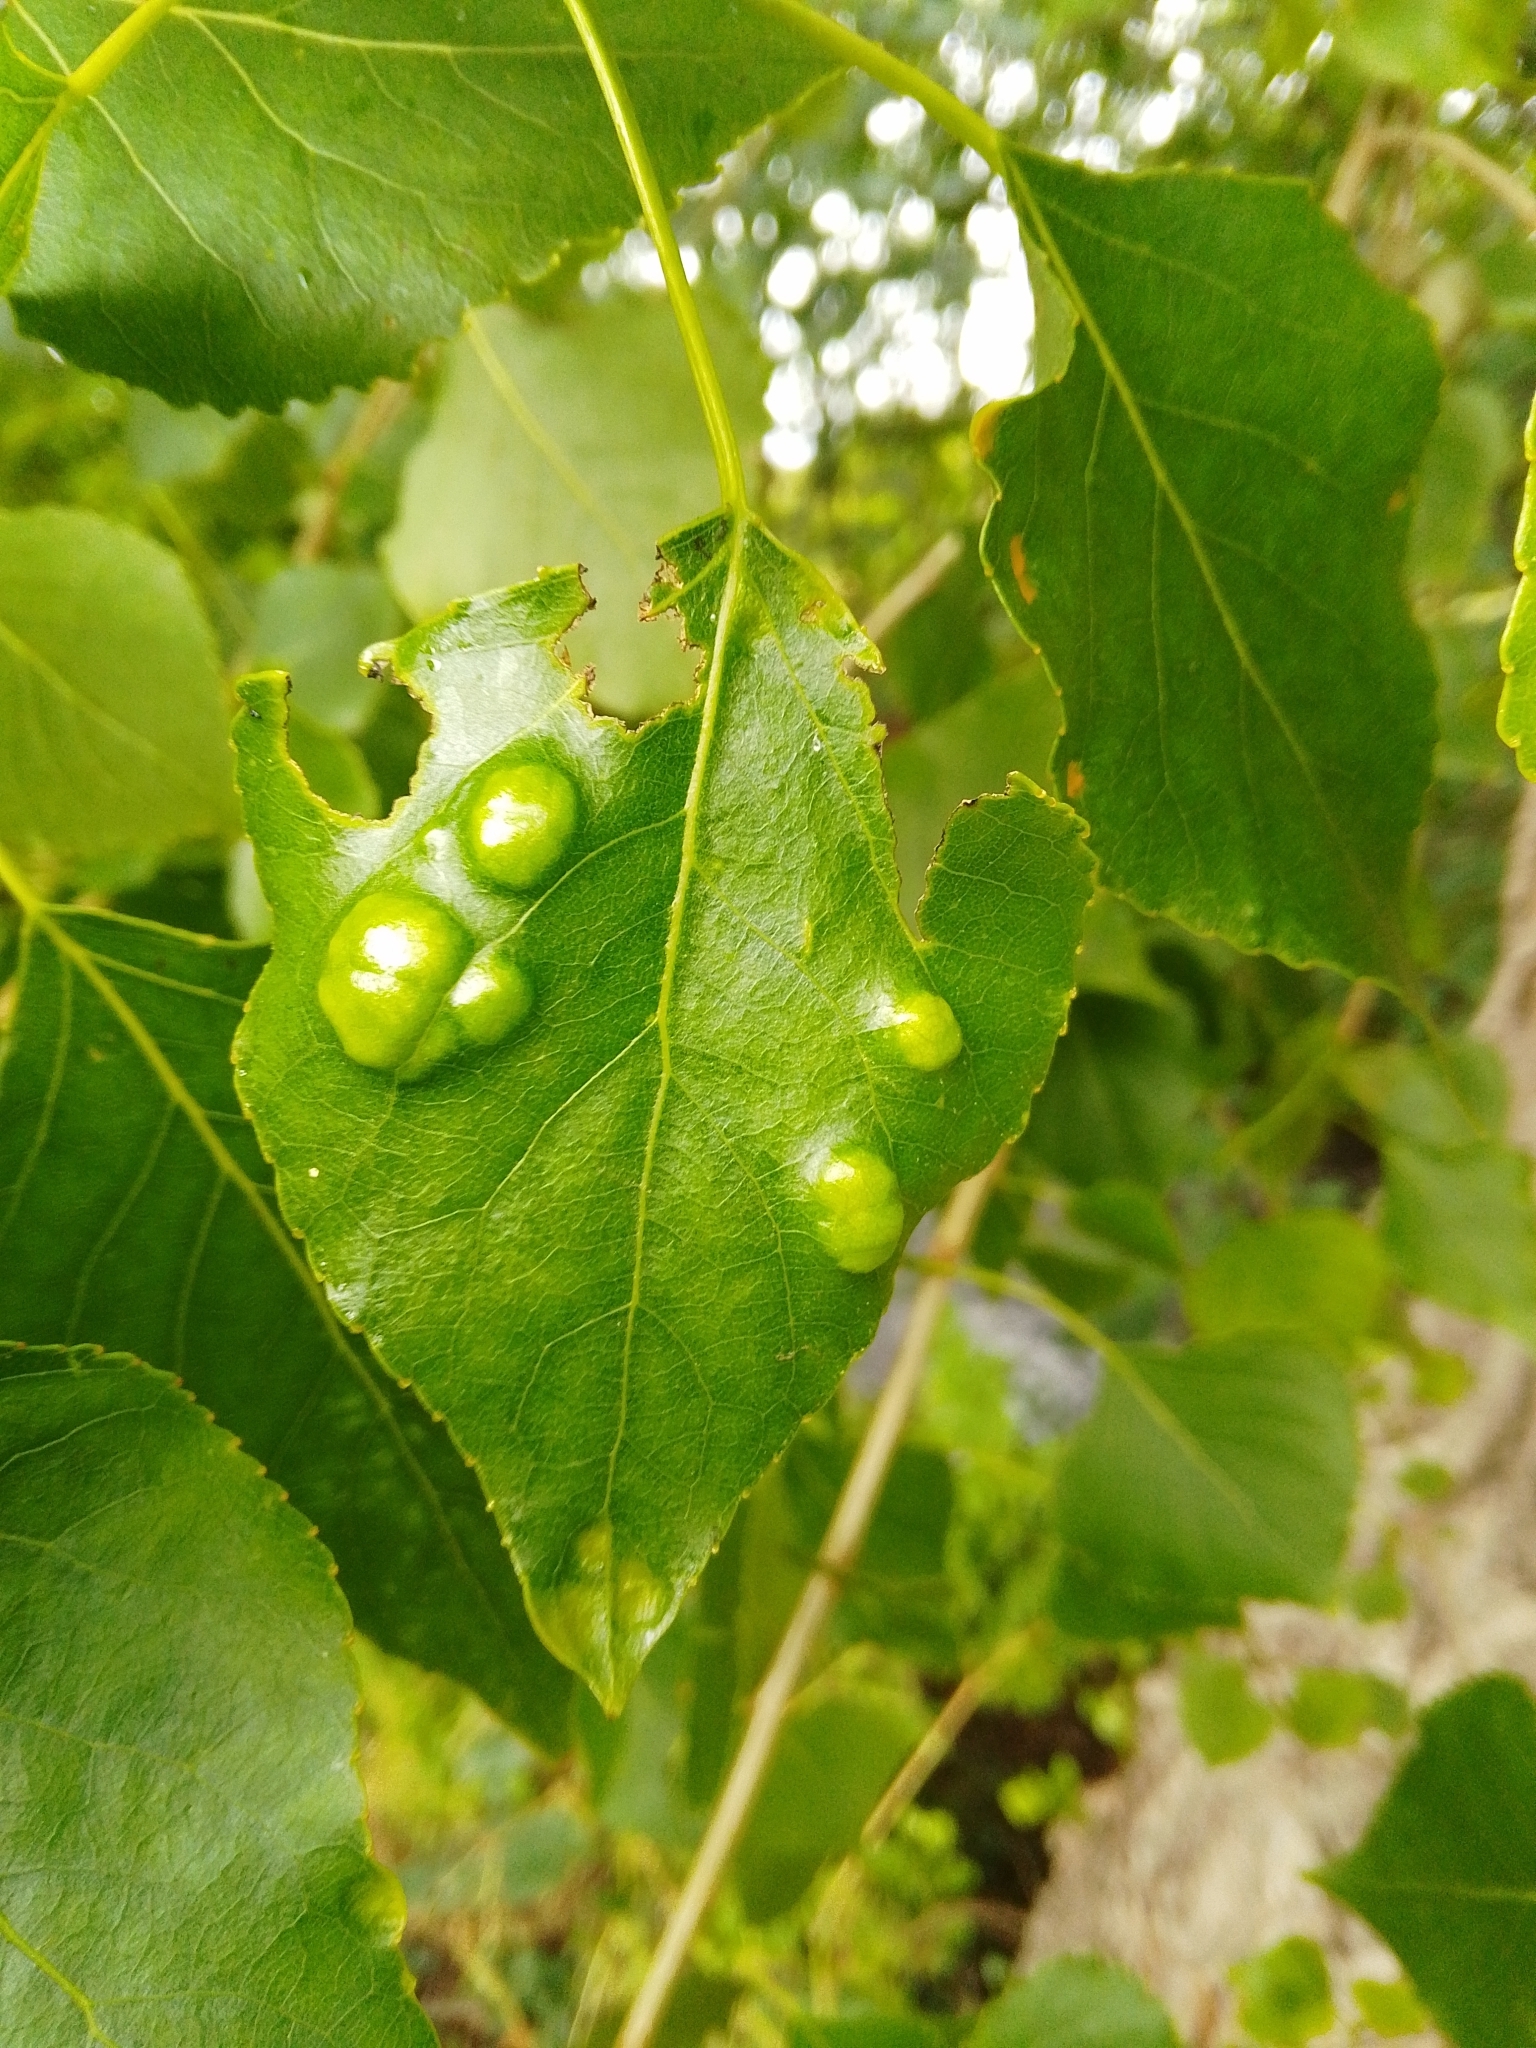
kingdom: Fungi
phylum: Ascomycota
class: Taphrinomycetes
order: Taphrinales
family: Taphrinaceae
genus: Taphrina
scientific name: Taphrina populina
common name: Poplar leaf curl
